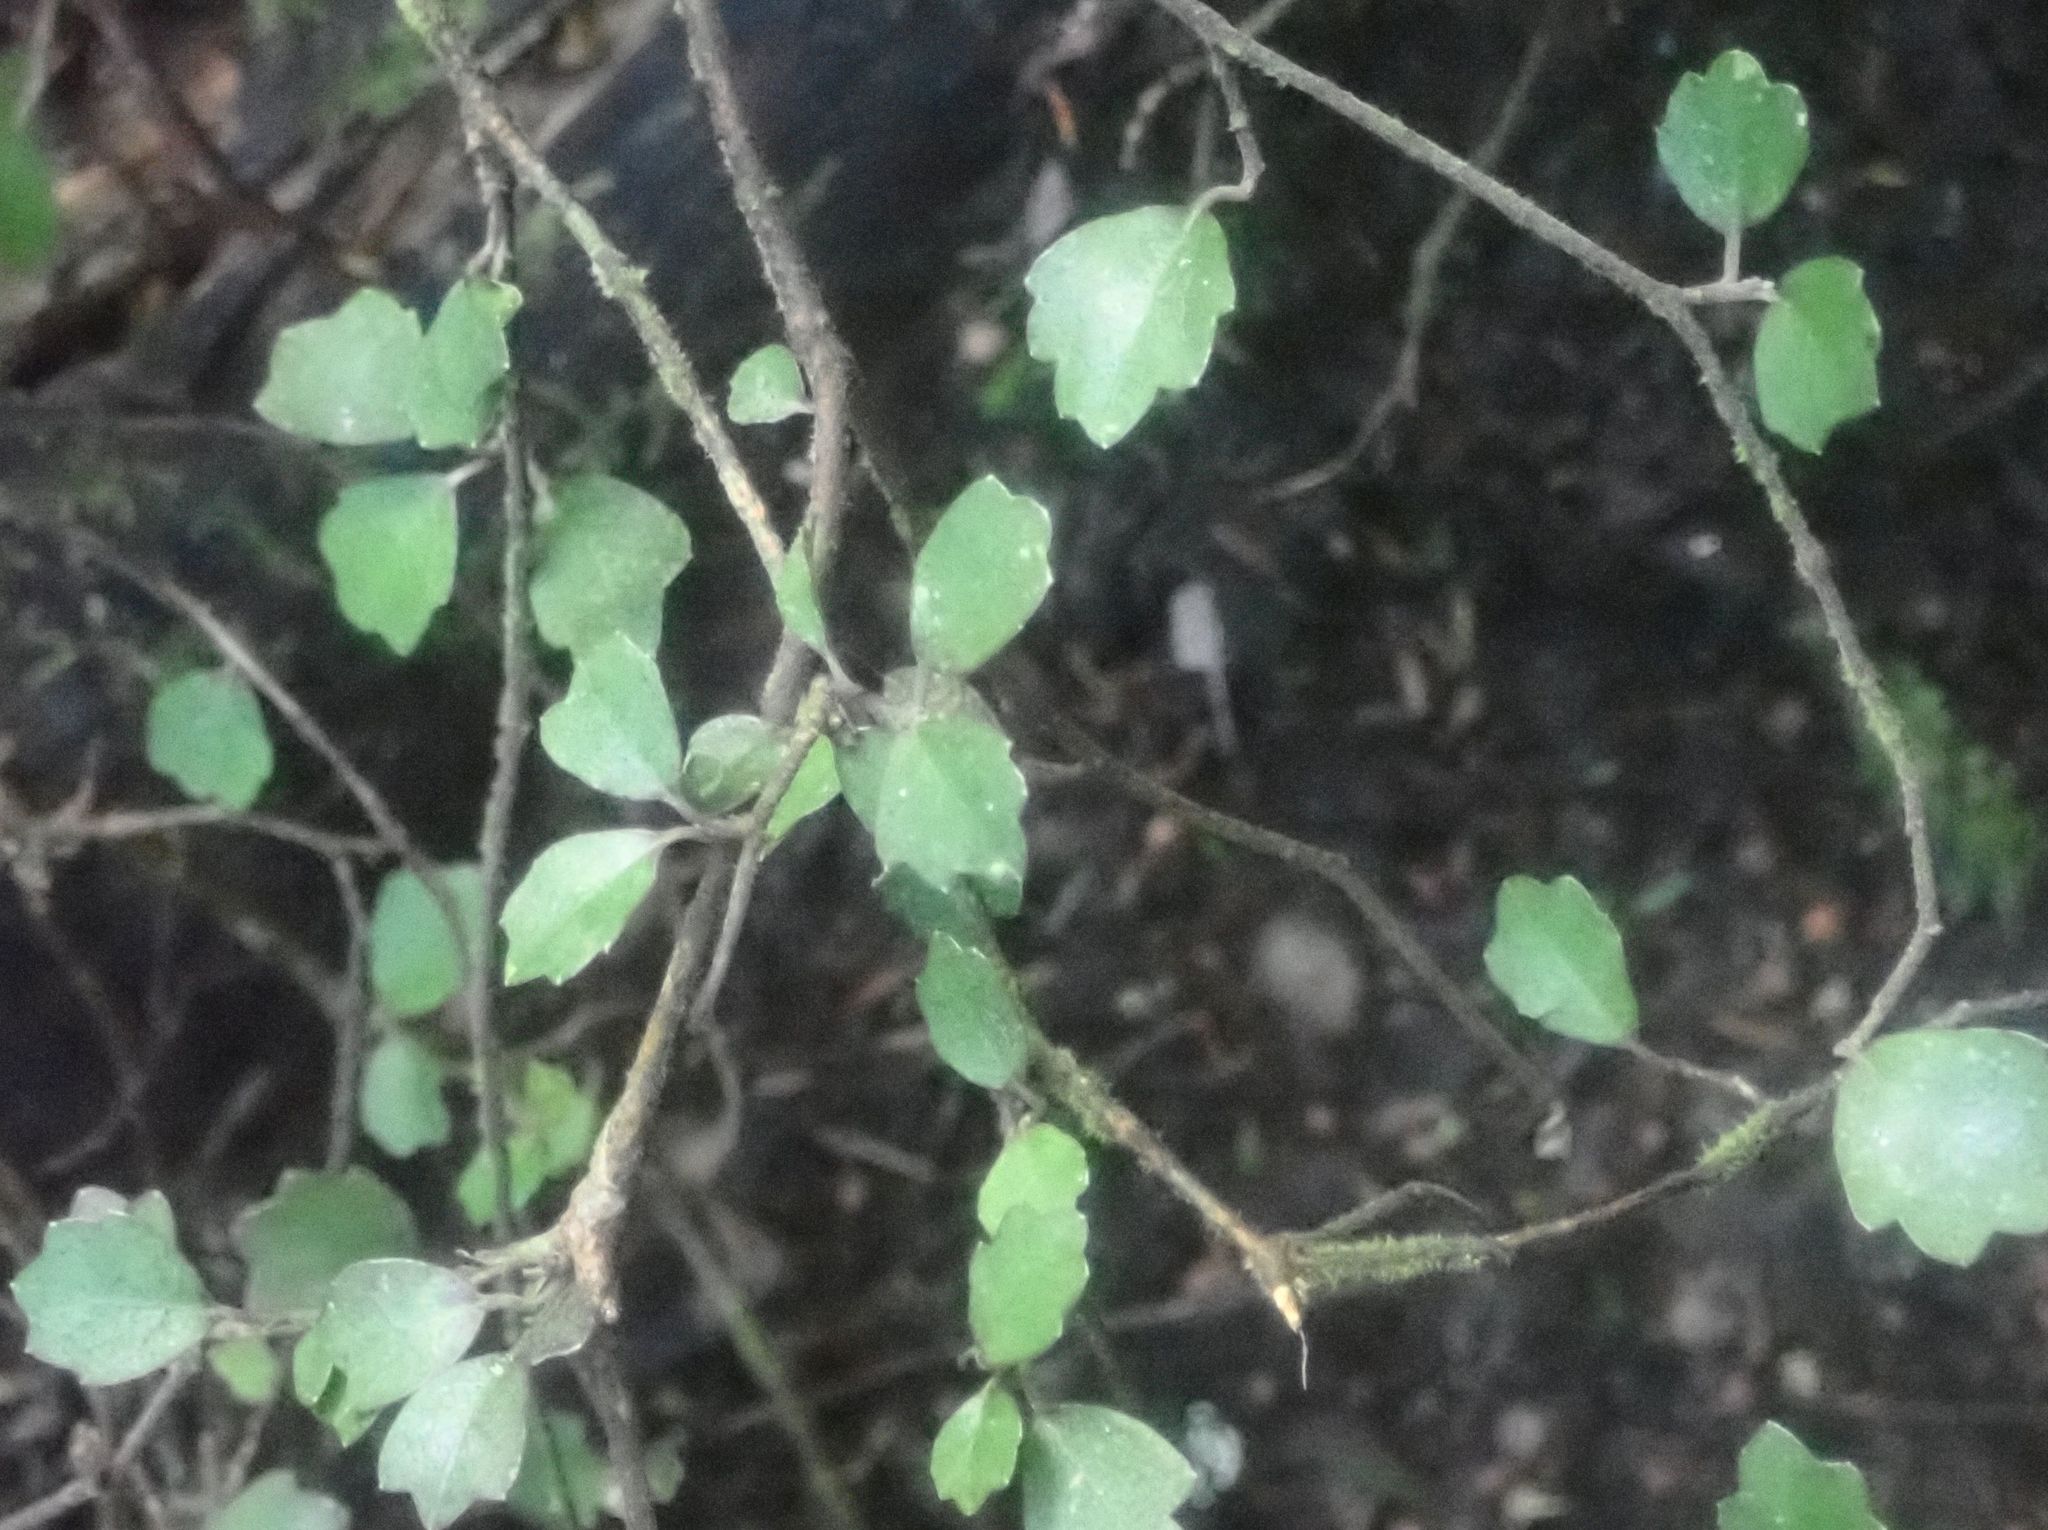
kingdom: Plantae
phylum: Tracheophyta
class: Magnoliopsida
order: Apiales
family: Pennantiaceae
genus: Pennantia
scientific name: Pennantia corymbosa
